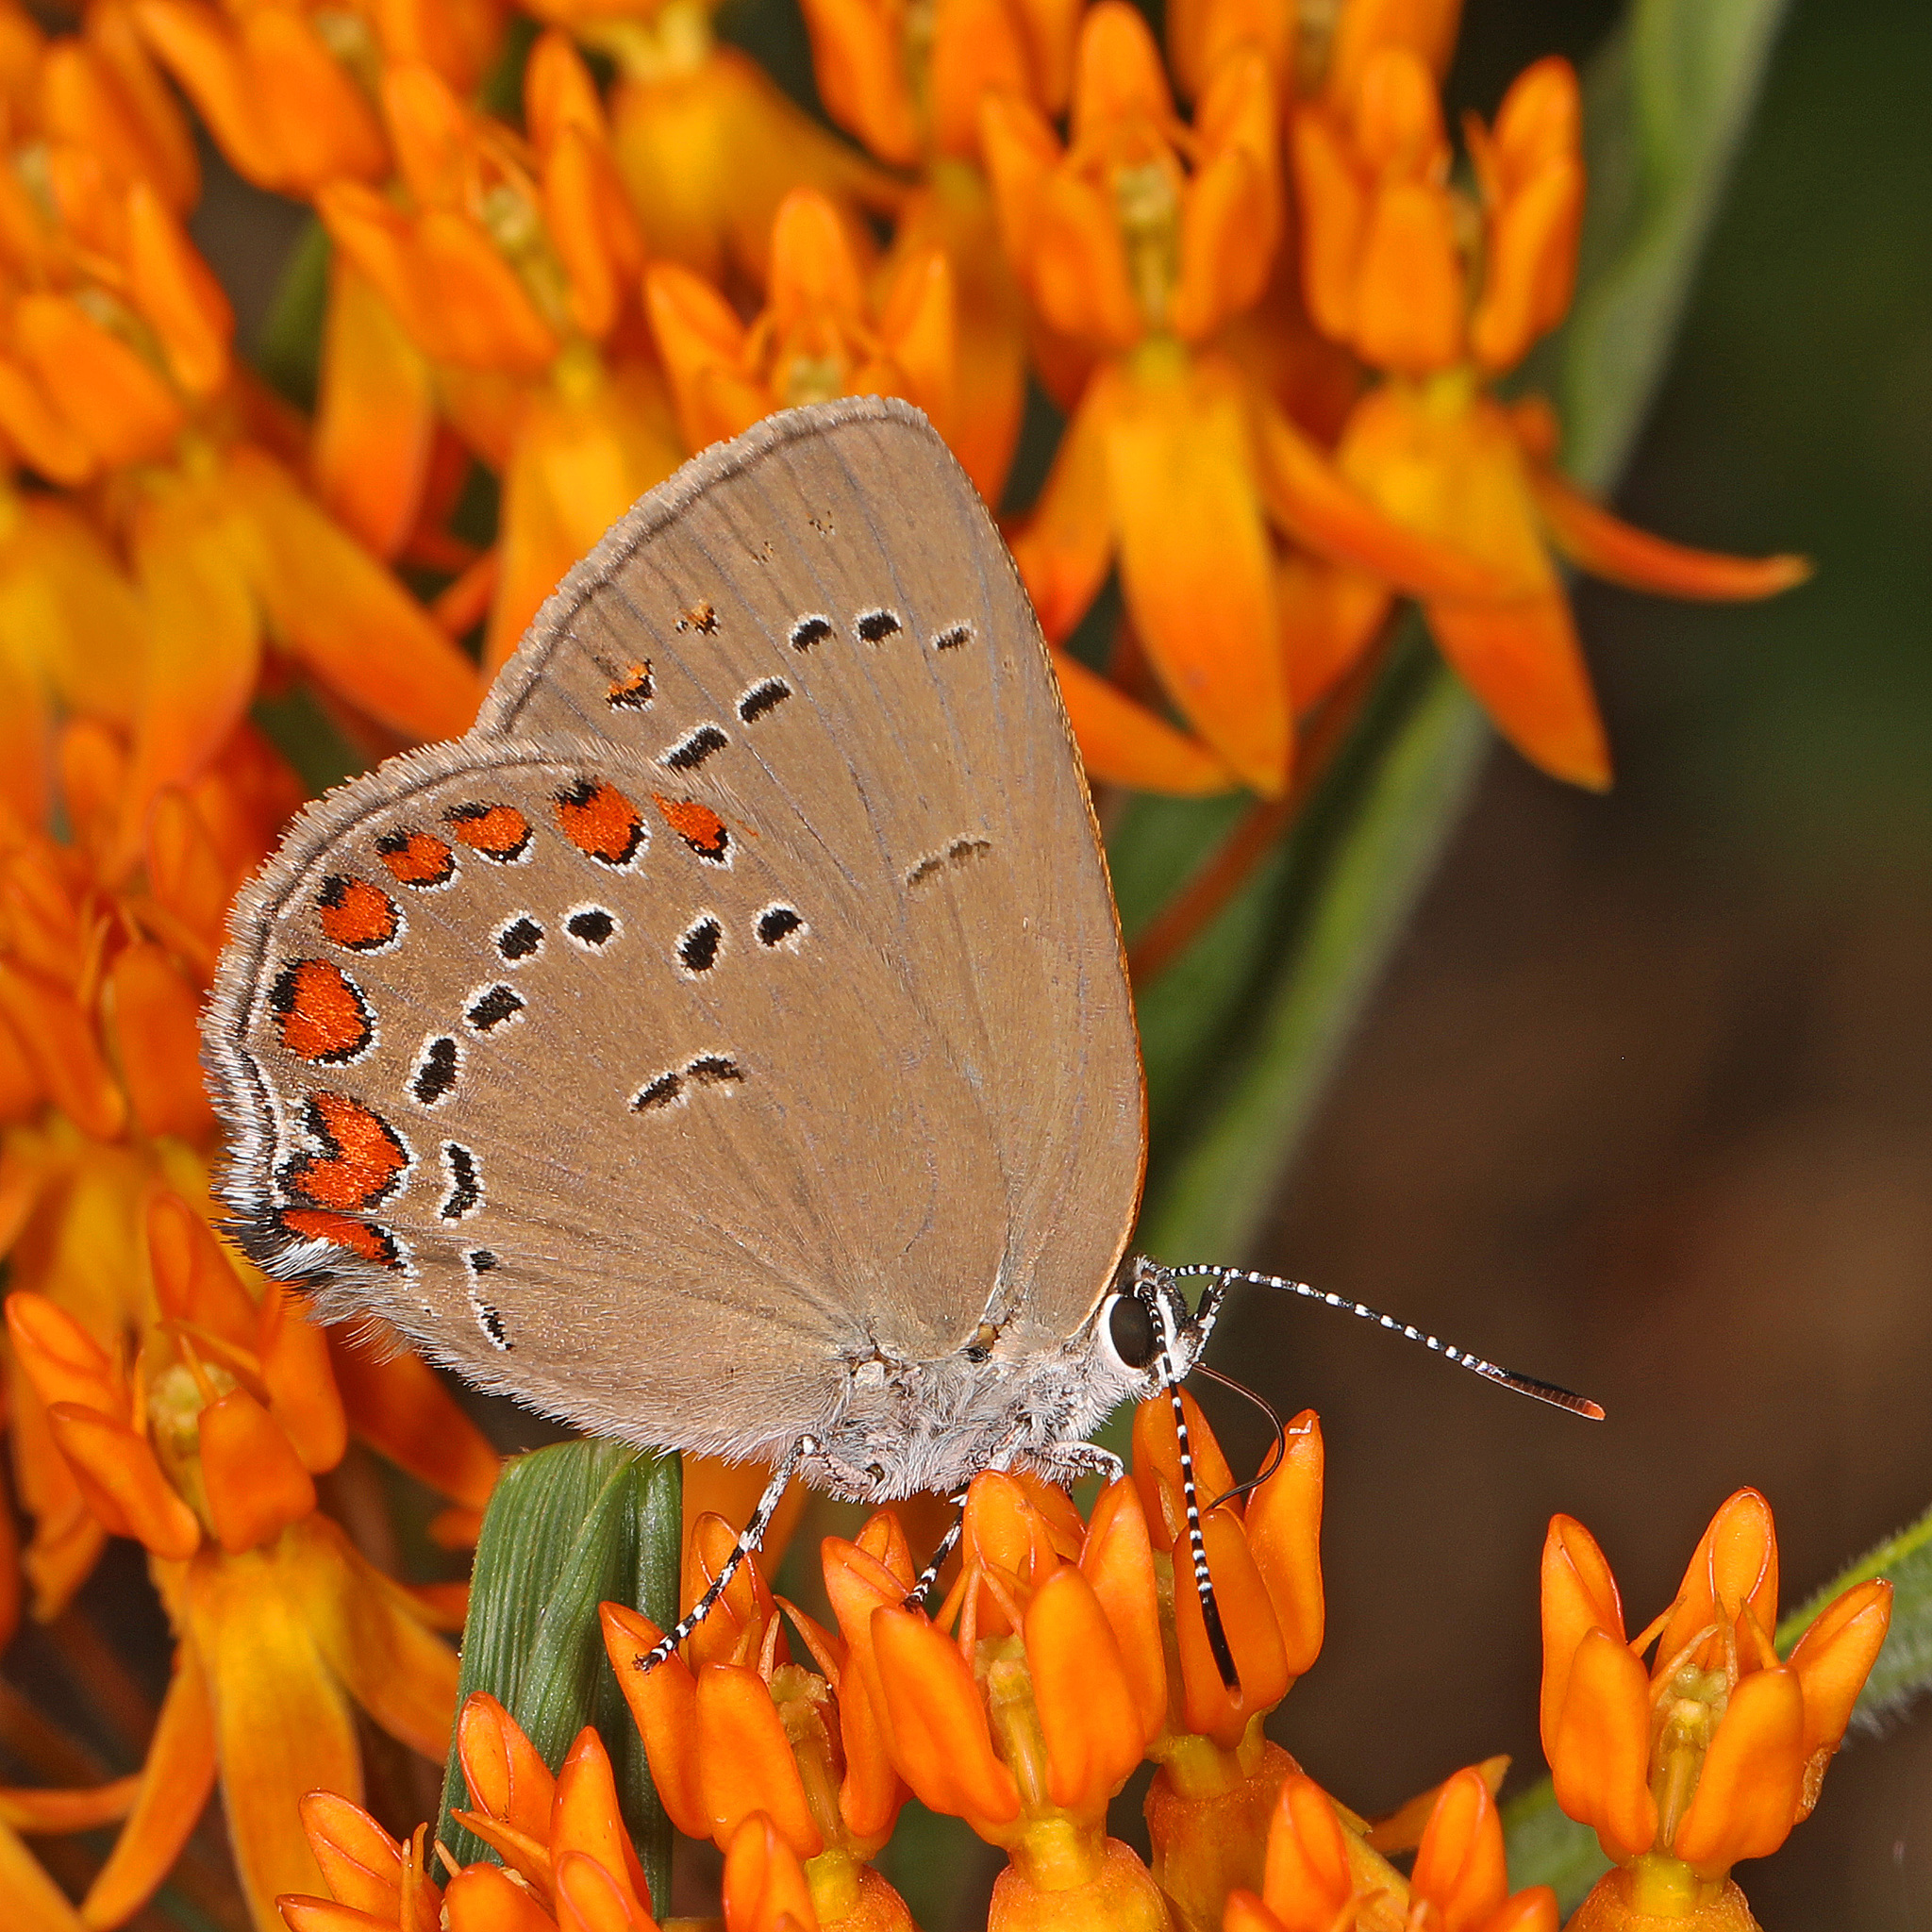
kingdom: Animalia
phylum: Arthropoda
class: Insecta
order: Lepidoptera
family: Lycaenidae
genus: Harkenclenus
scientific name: Harkenclenus titus
